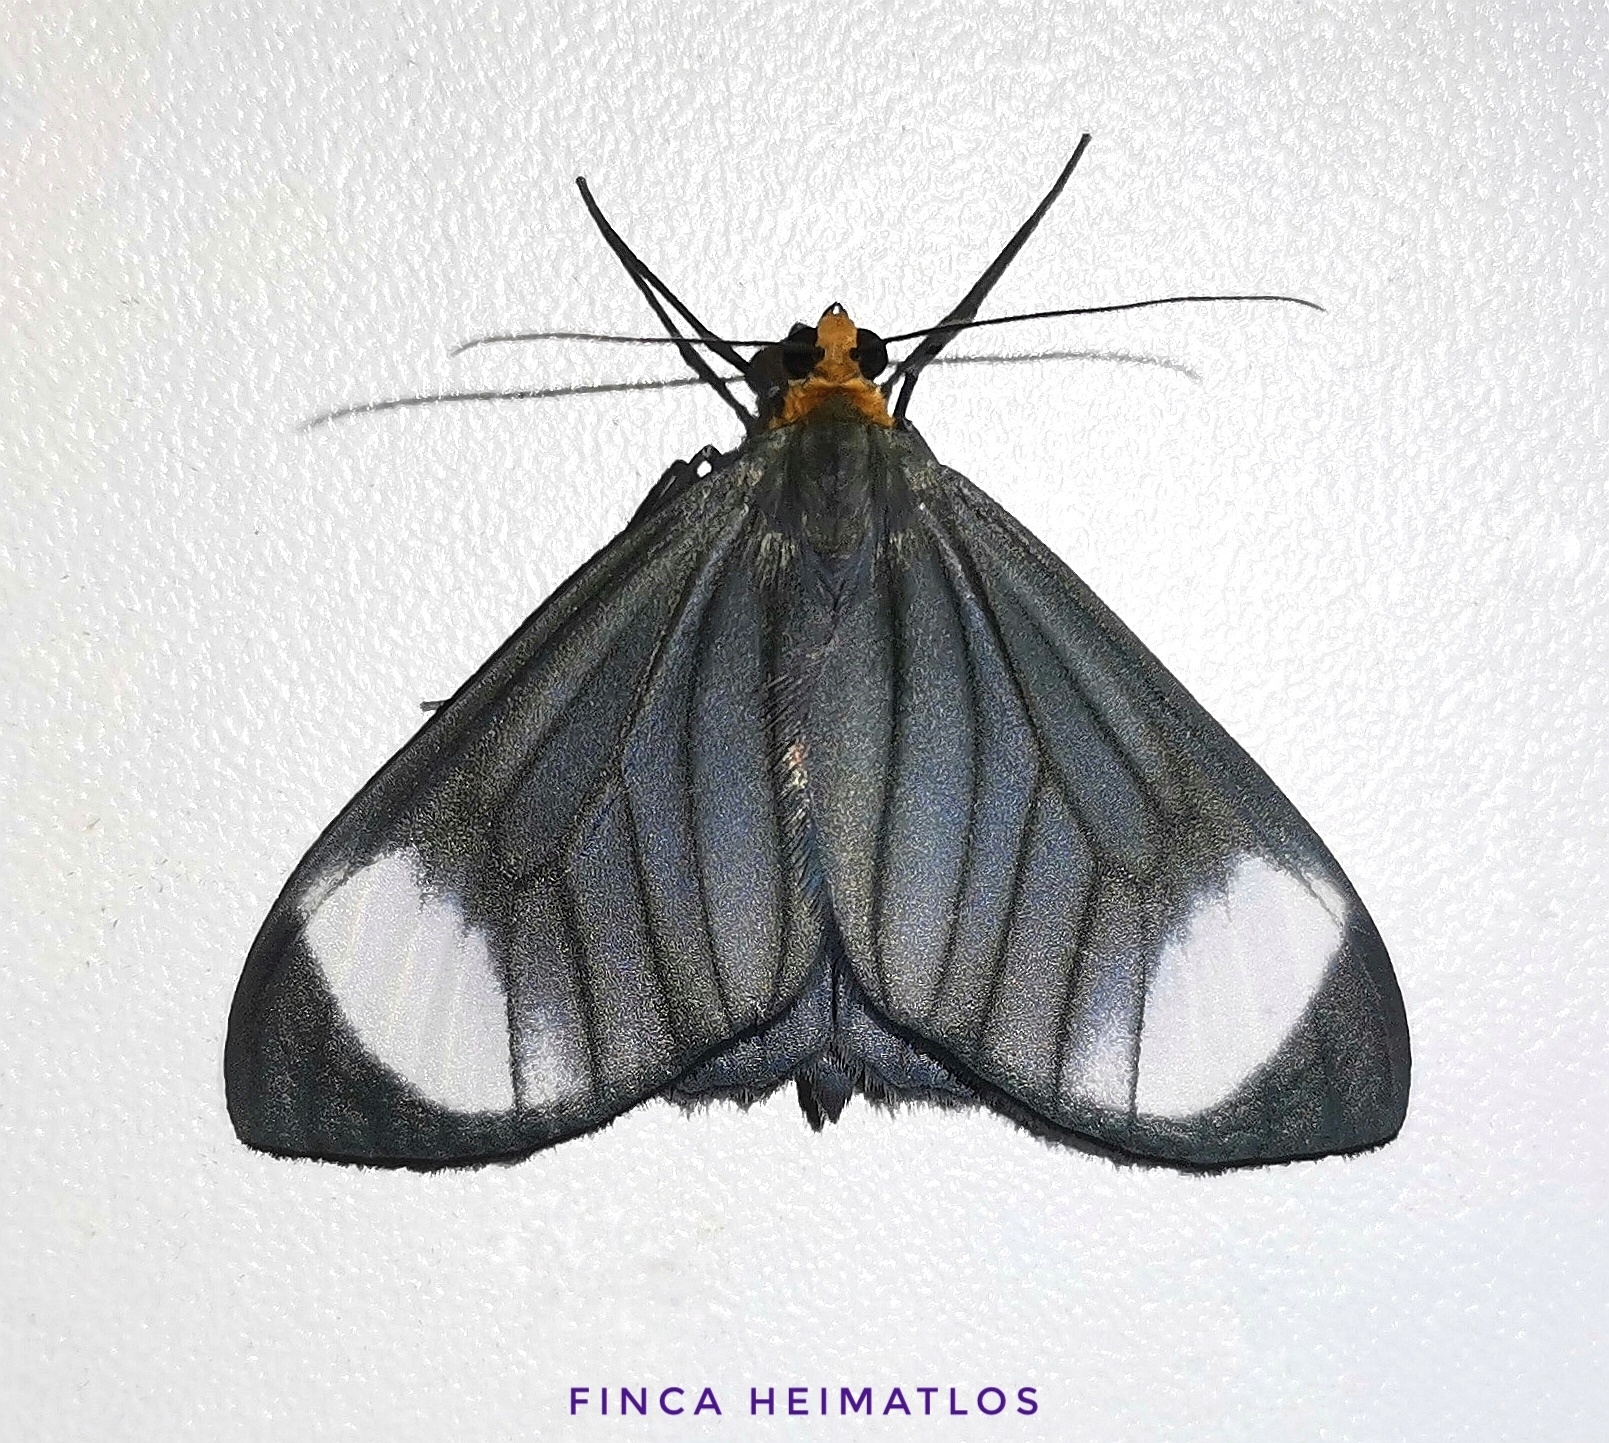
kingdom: Animalia
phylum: Arthropoda
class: Insecta
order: Lepidoptera
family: Geometridae
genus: Crocypus
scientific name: Crocypus perlucidaria
